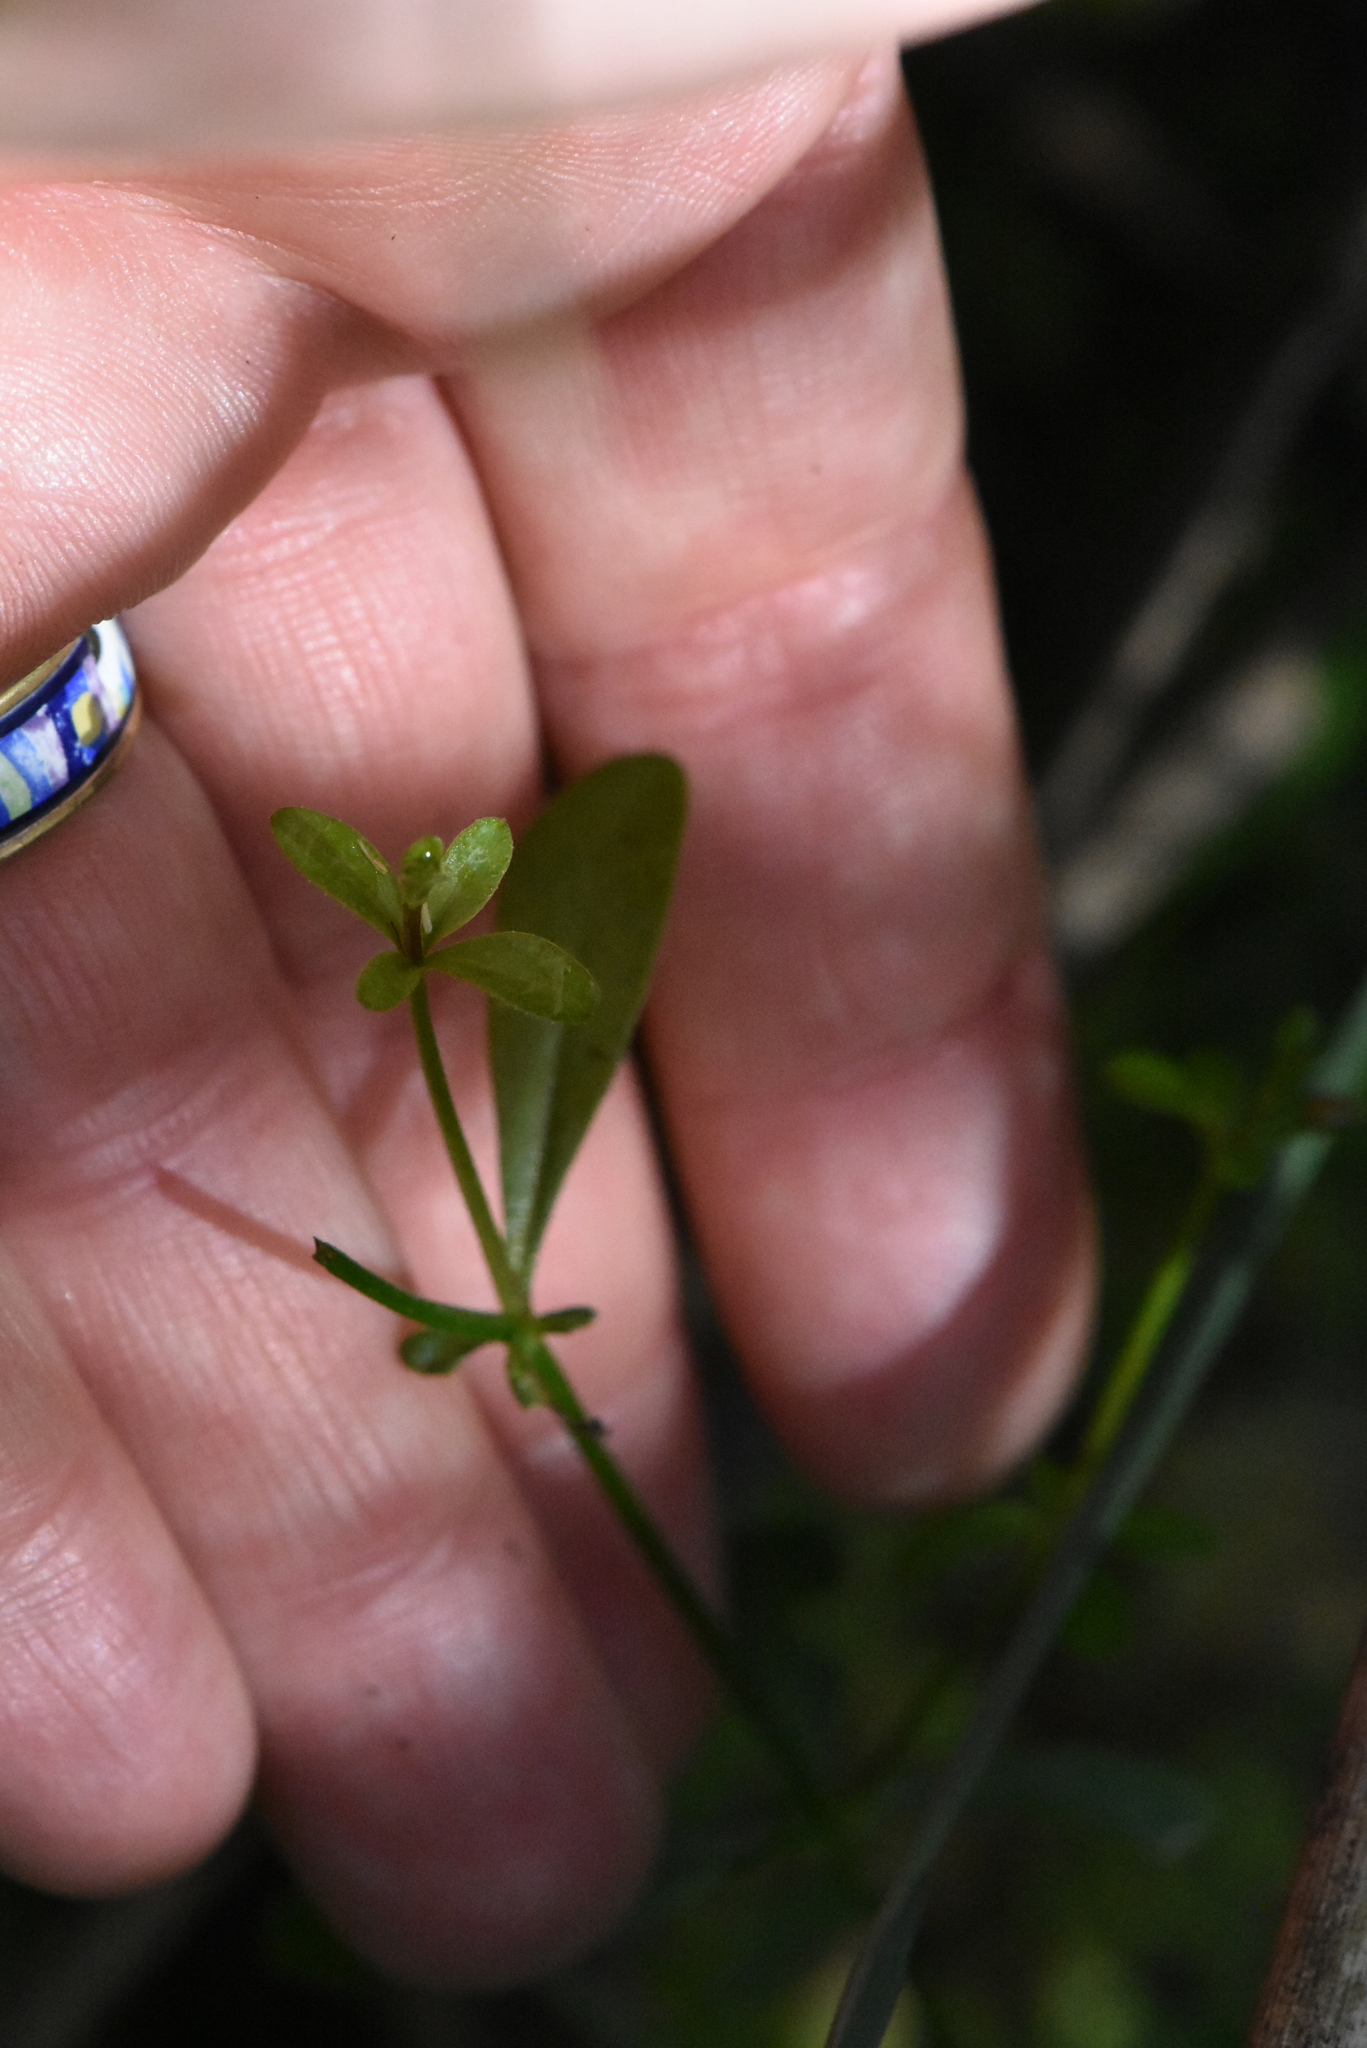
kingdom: Plantae
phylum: Tracheophyta
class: Magnoliopsida
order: Gentianales
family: Rubiaceae
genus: Galium
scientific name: Galium palustre
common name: Common marsh-bedstraw
